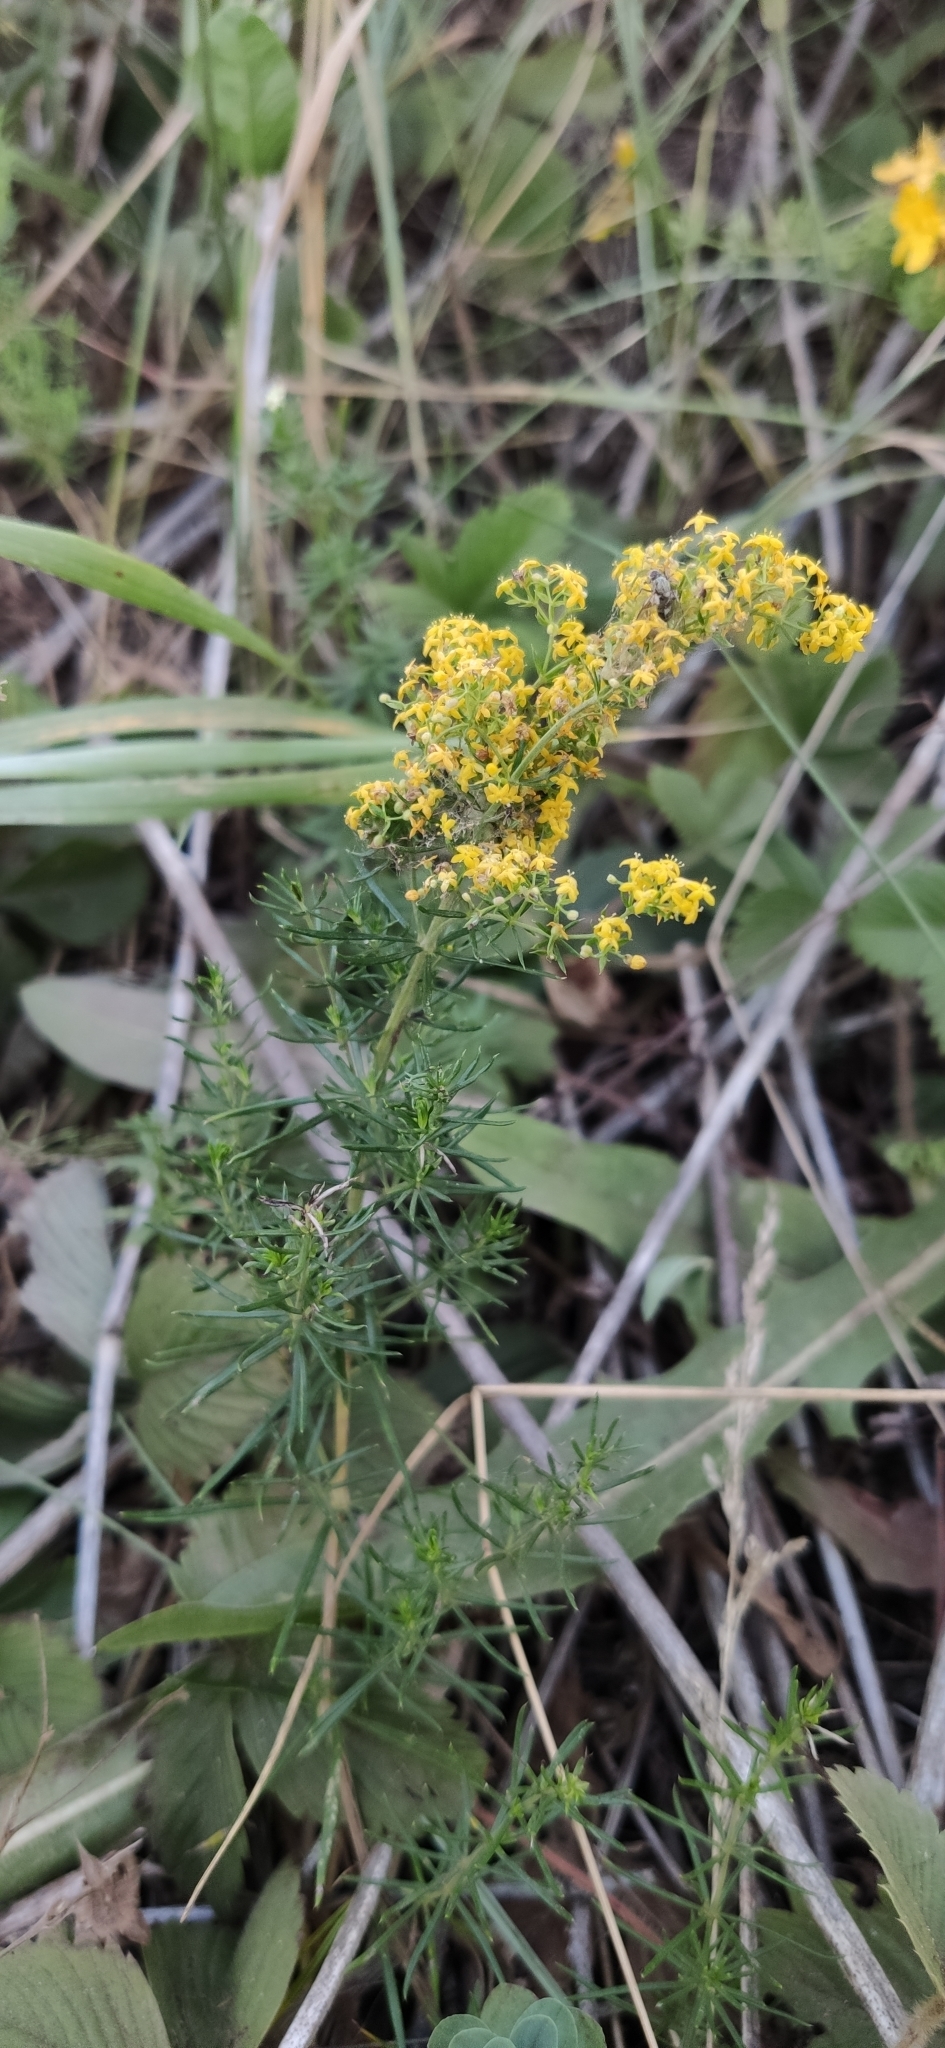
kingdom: Plantae
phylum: Tracheophyta
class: Magnoliopsida
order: Gentianales
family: Rubiaceae
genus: Galium
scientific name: Galium verum
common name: Lady's bedstraw
